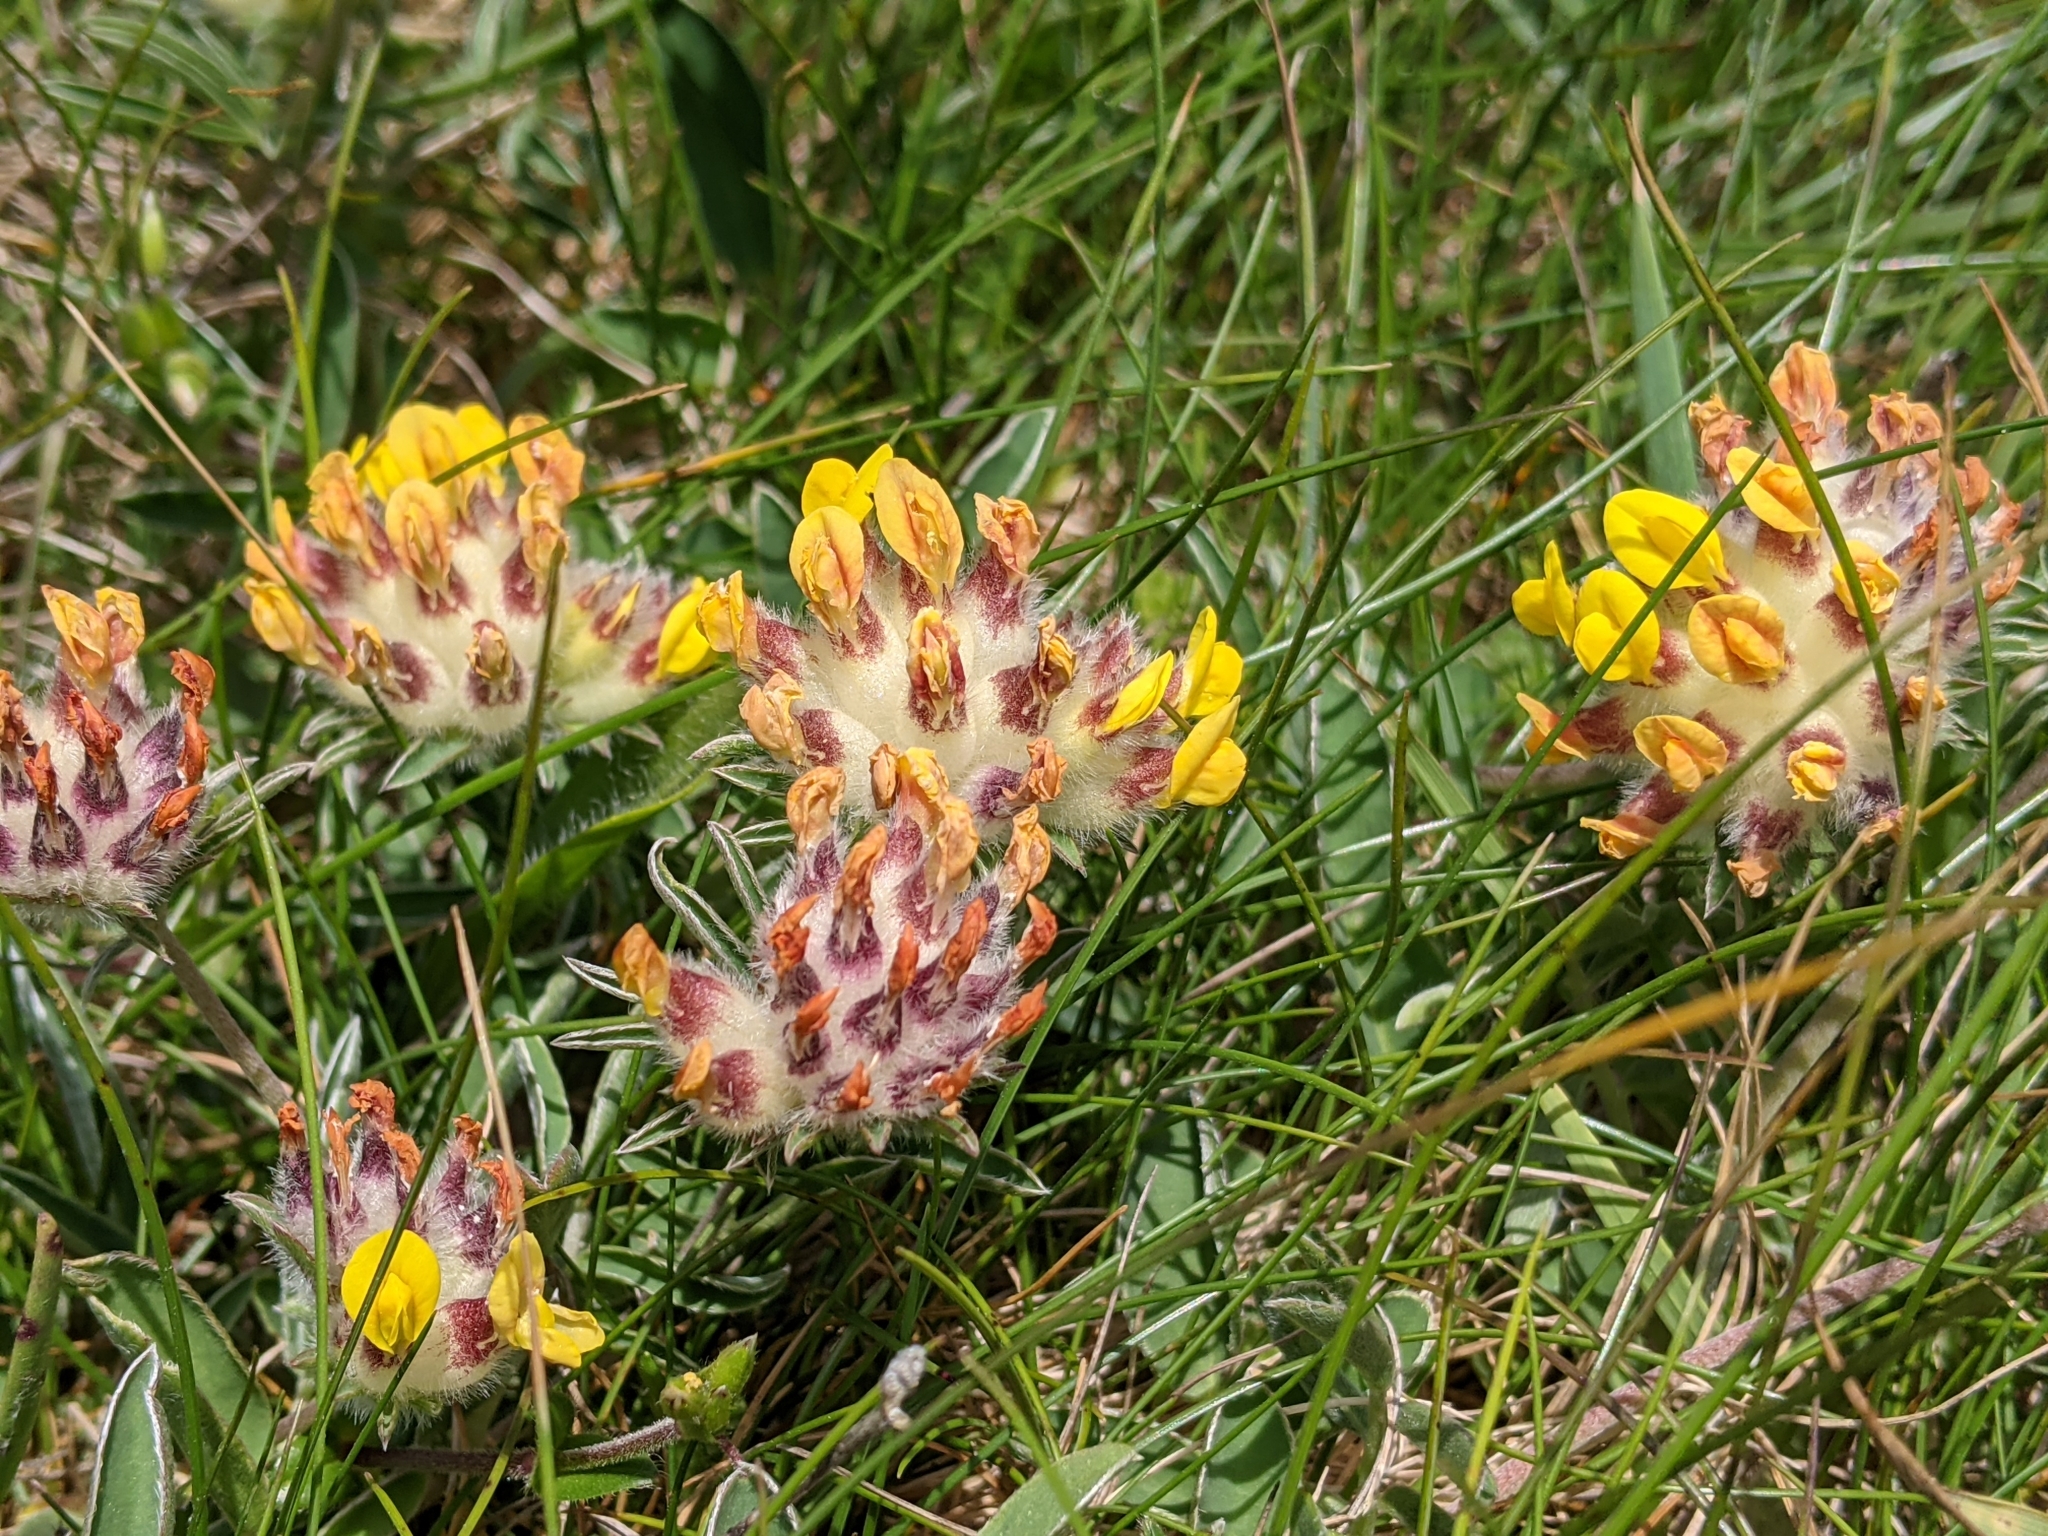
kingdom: Plantae
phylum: Tracheophyta
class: Magnoliopsida
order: Fabales
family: Fabaceae
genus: Anthyllis
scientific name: Anthyllis vulneraria
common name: Kidney vetch
